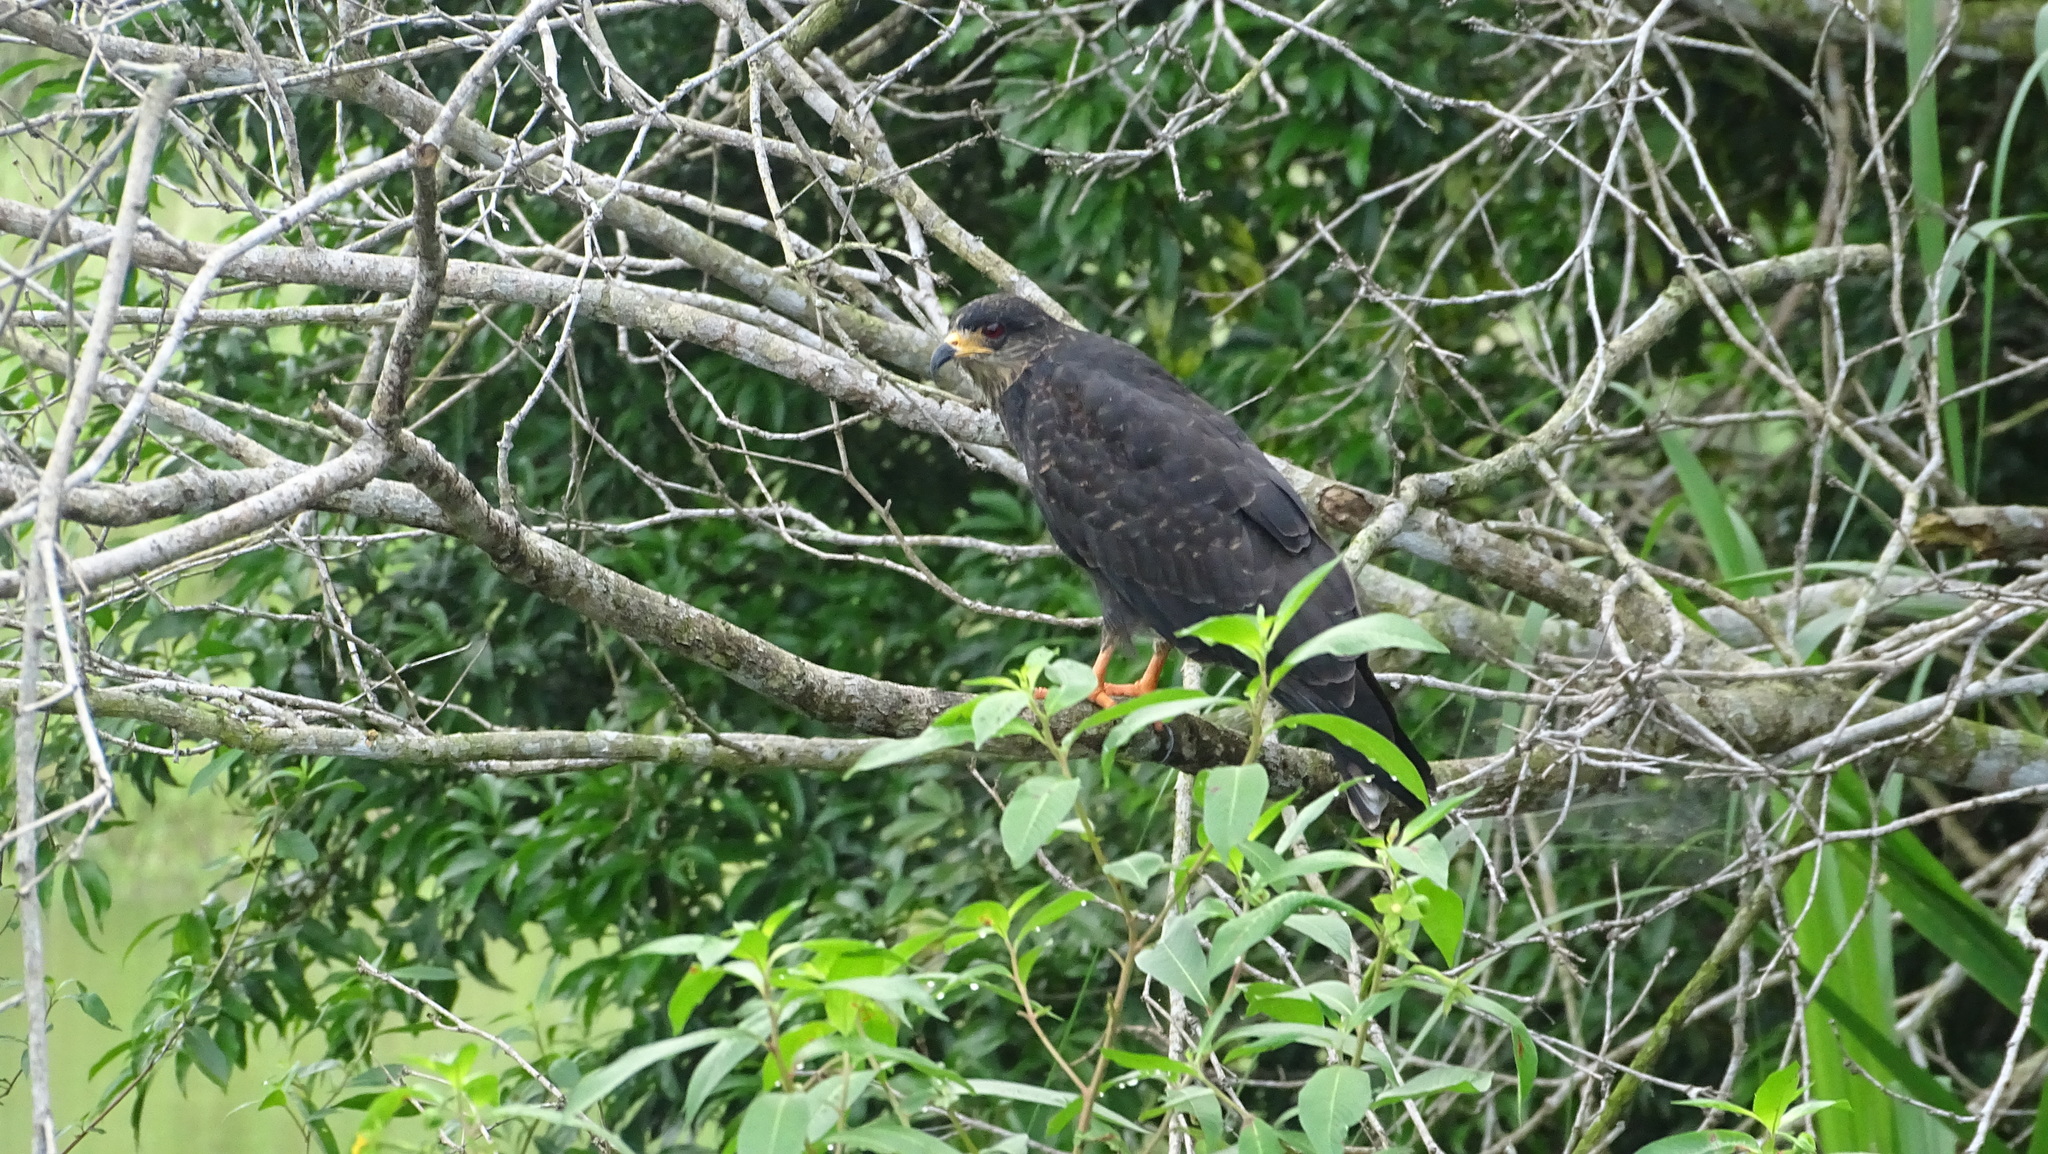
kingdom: Animalia
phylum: Chordata
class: Aves
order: Accipitriformes
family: Accipitridae
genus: Rostrhamus
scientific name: Rostrhamus sociabilis
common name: Snail kite
